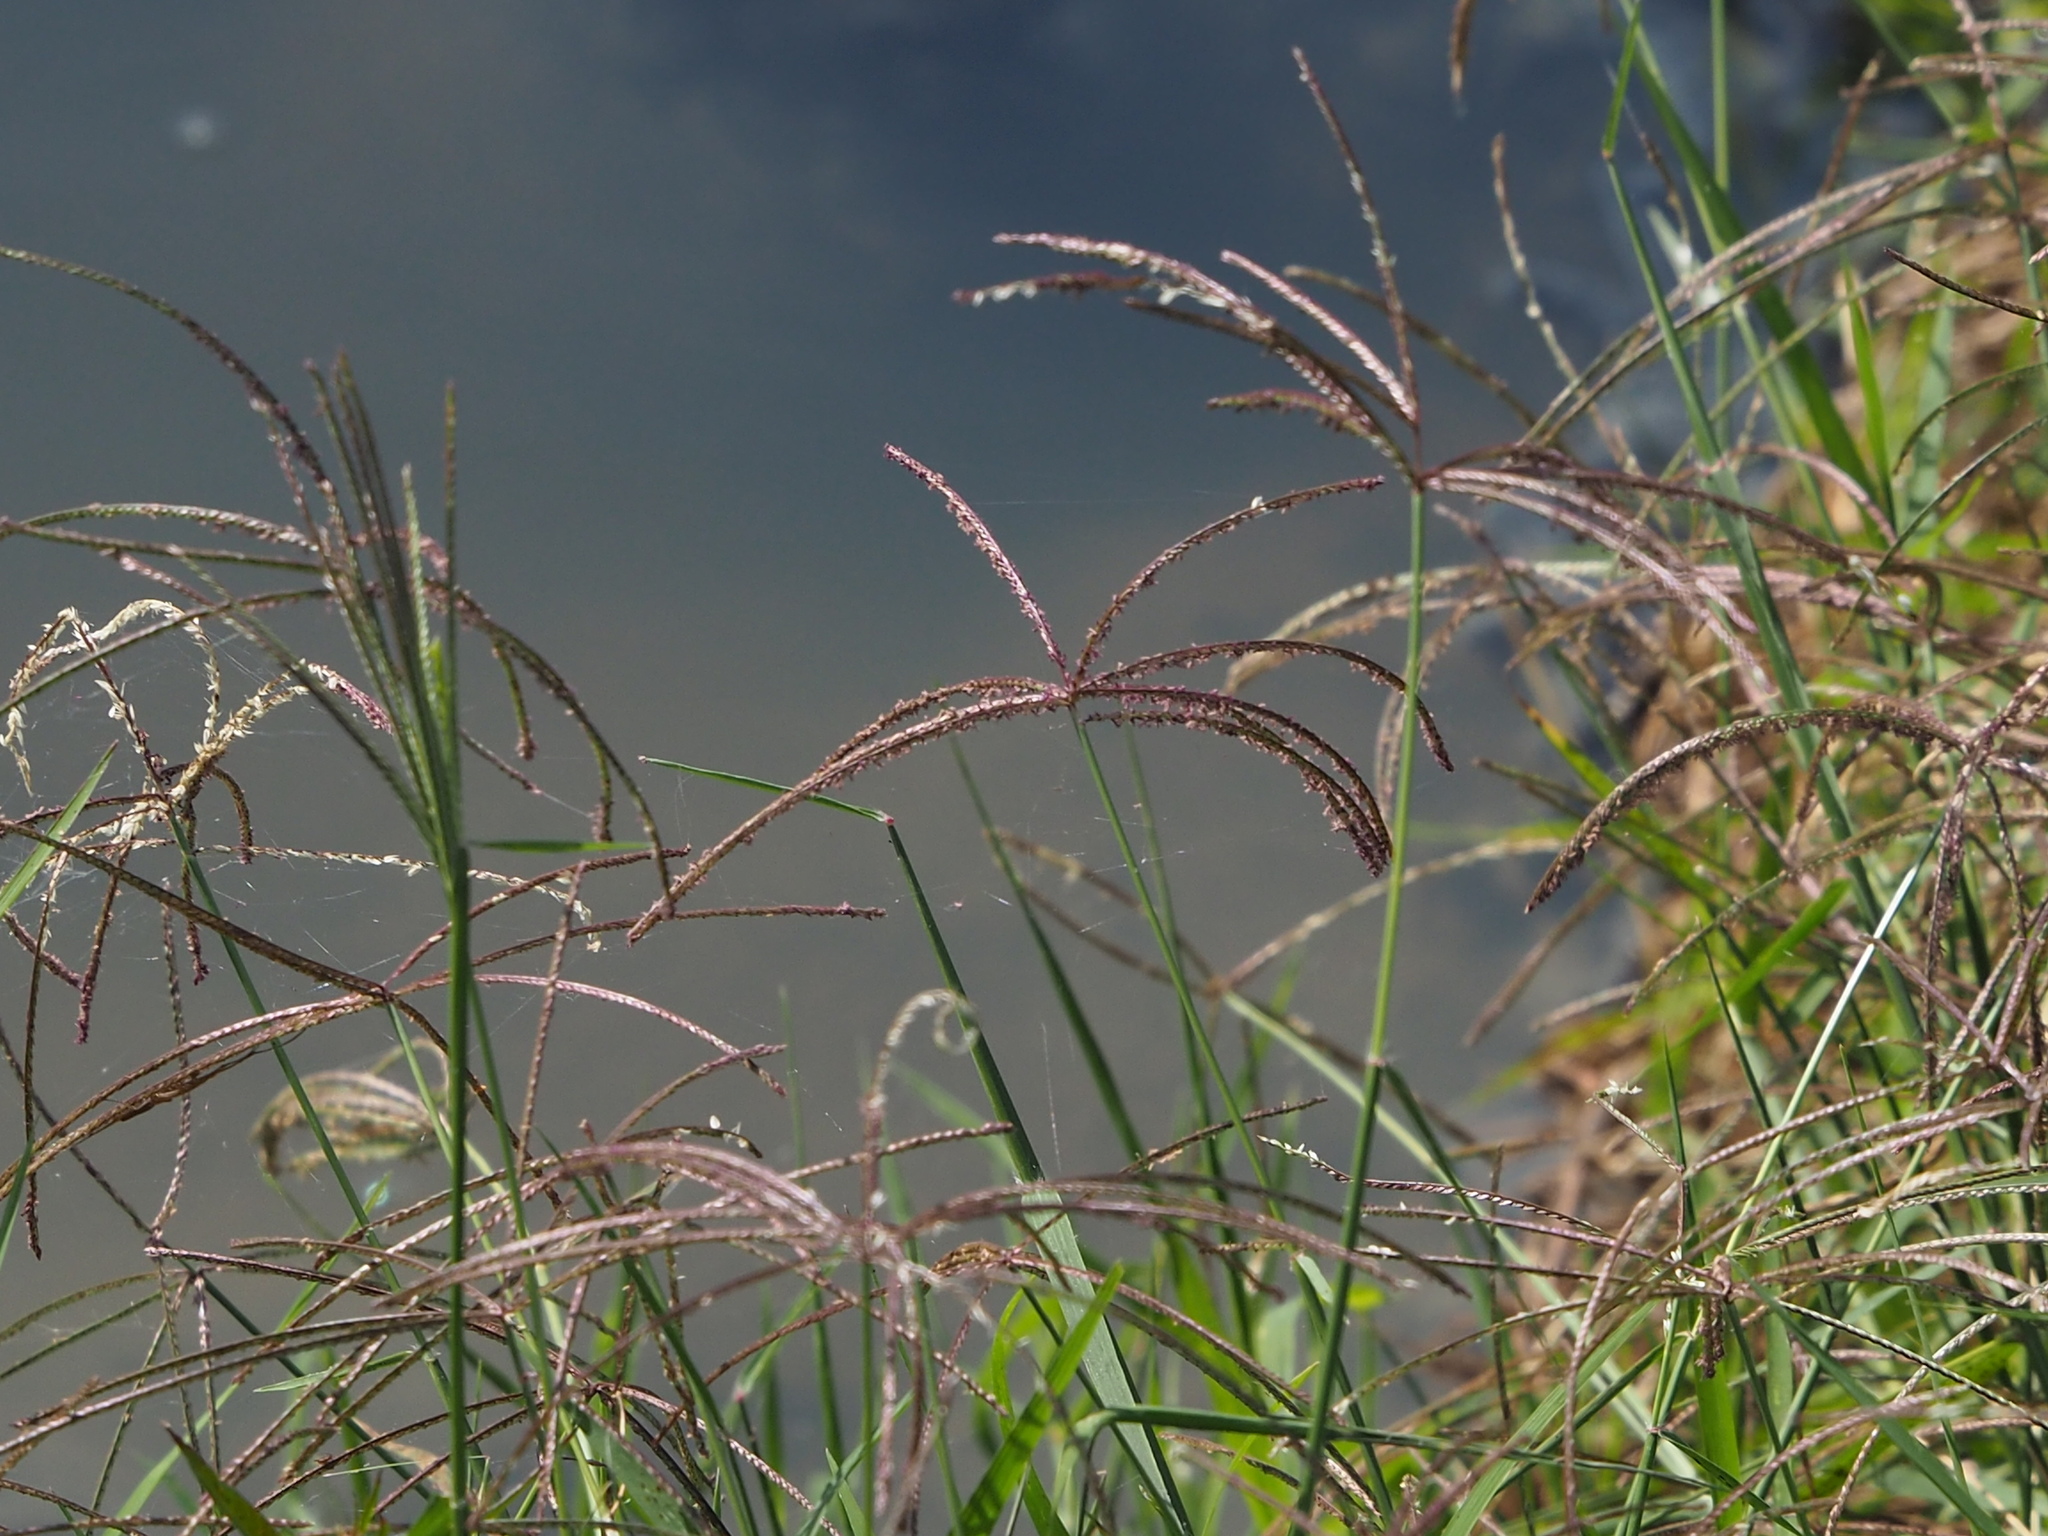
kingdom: Plantae
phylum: Tracheophyta
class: Liliopsida
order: Poales
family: Poaceae
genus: Cynodon
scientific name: Cynodon nlemfuensis
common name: African bermudagrass
